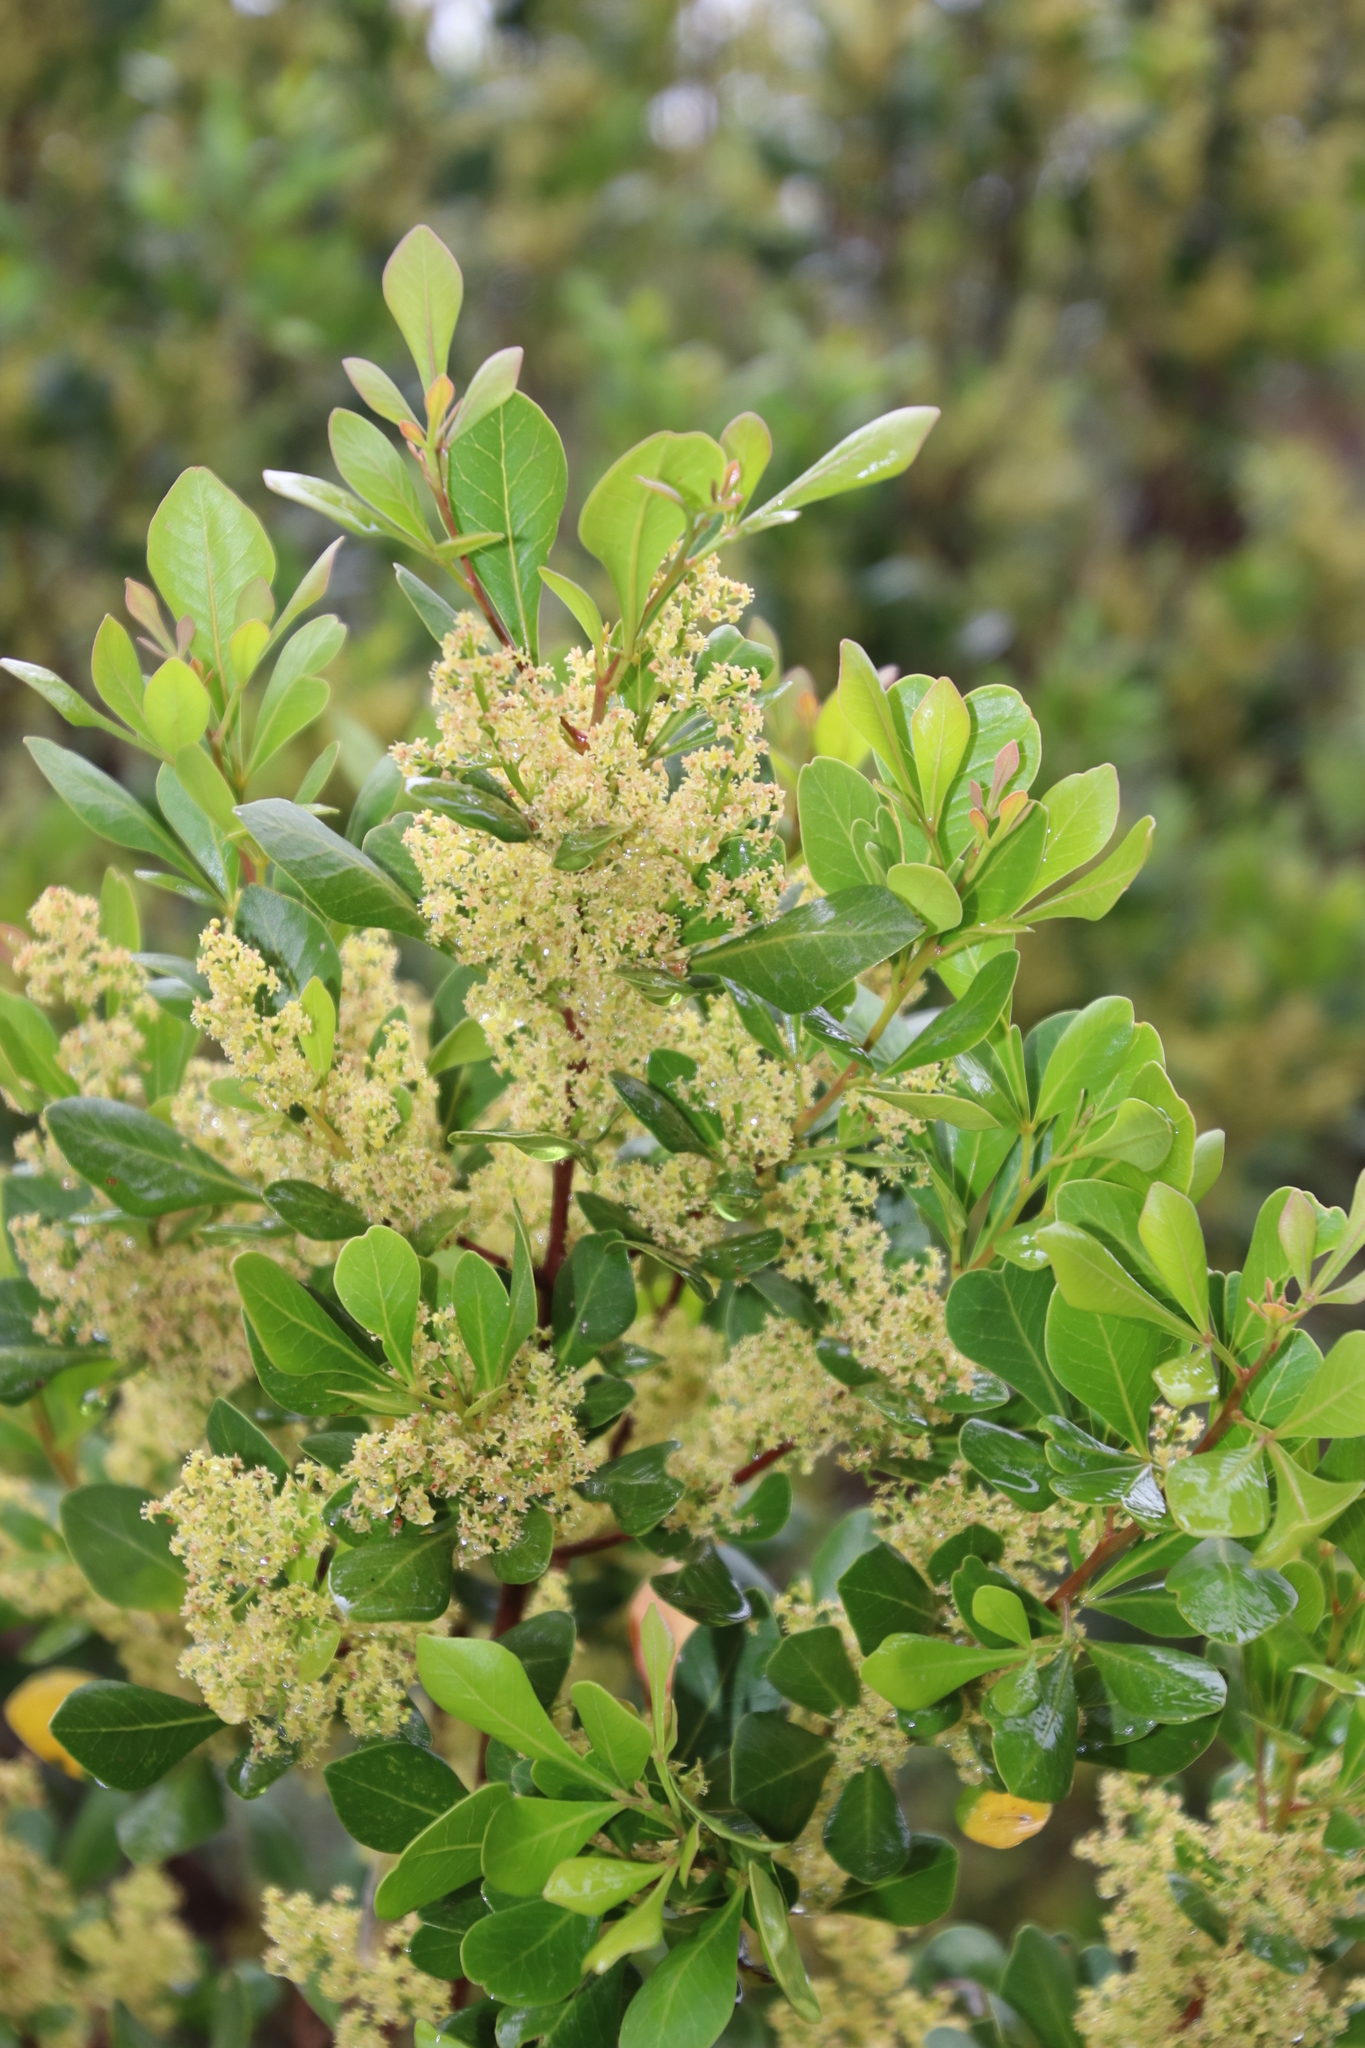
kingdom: Plantae
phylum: Tracheophyta
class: Magnoliopsida
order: Sapindales
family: Anacardiaceae
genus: Searsia
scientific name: Searsia lucida
